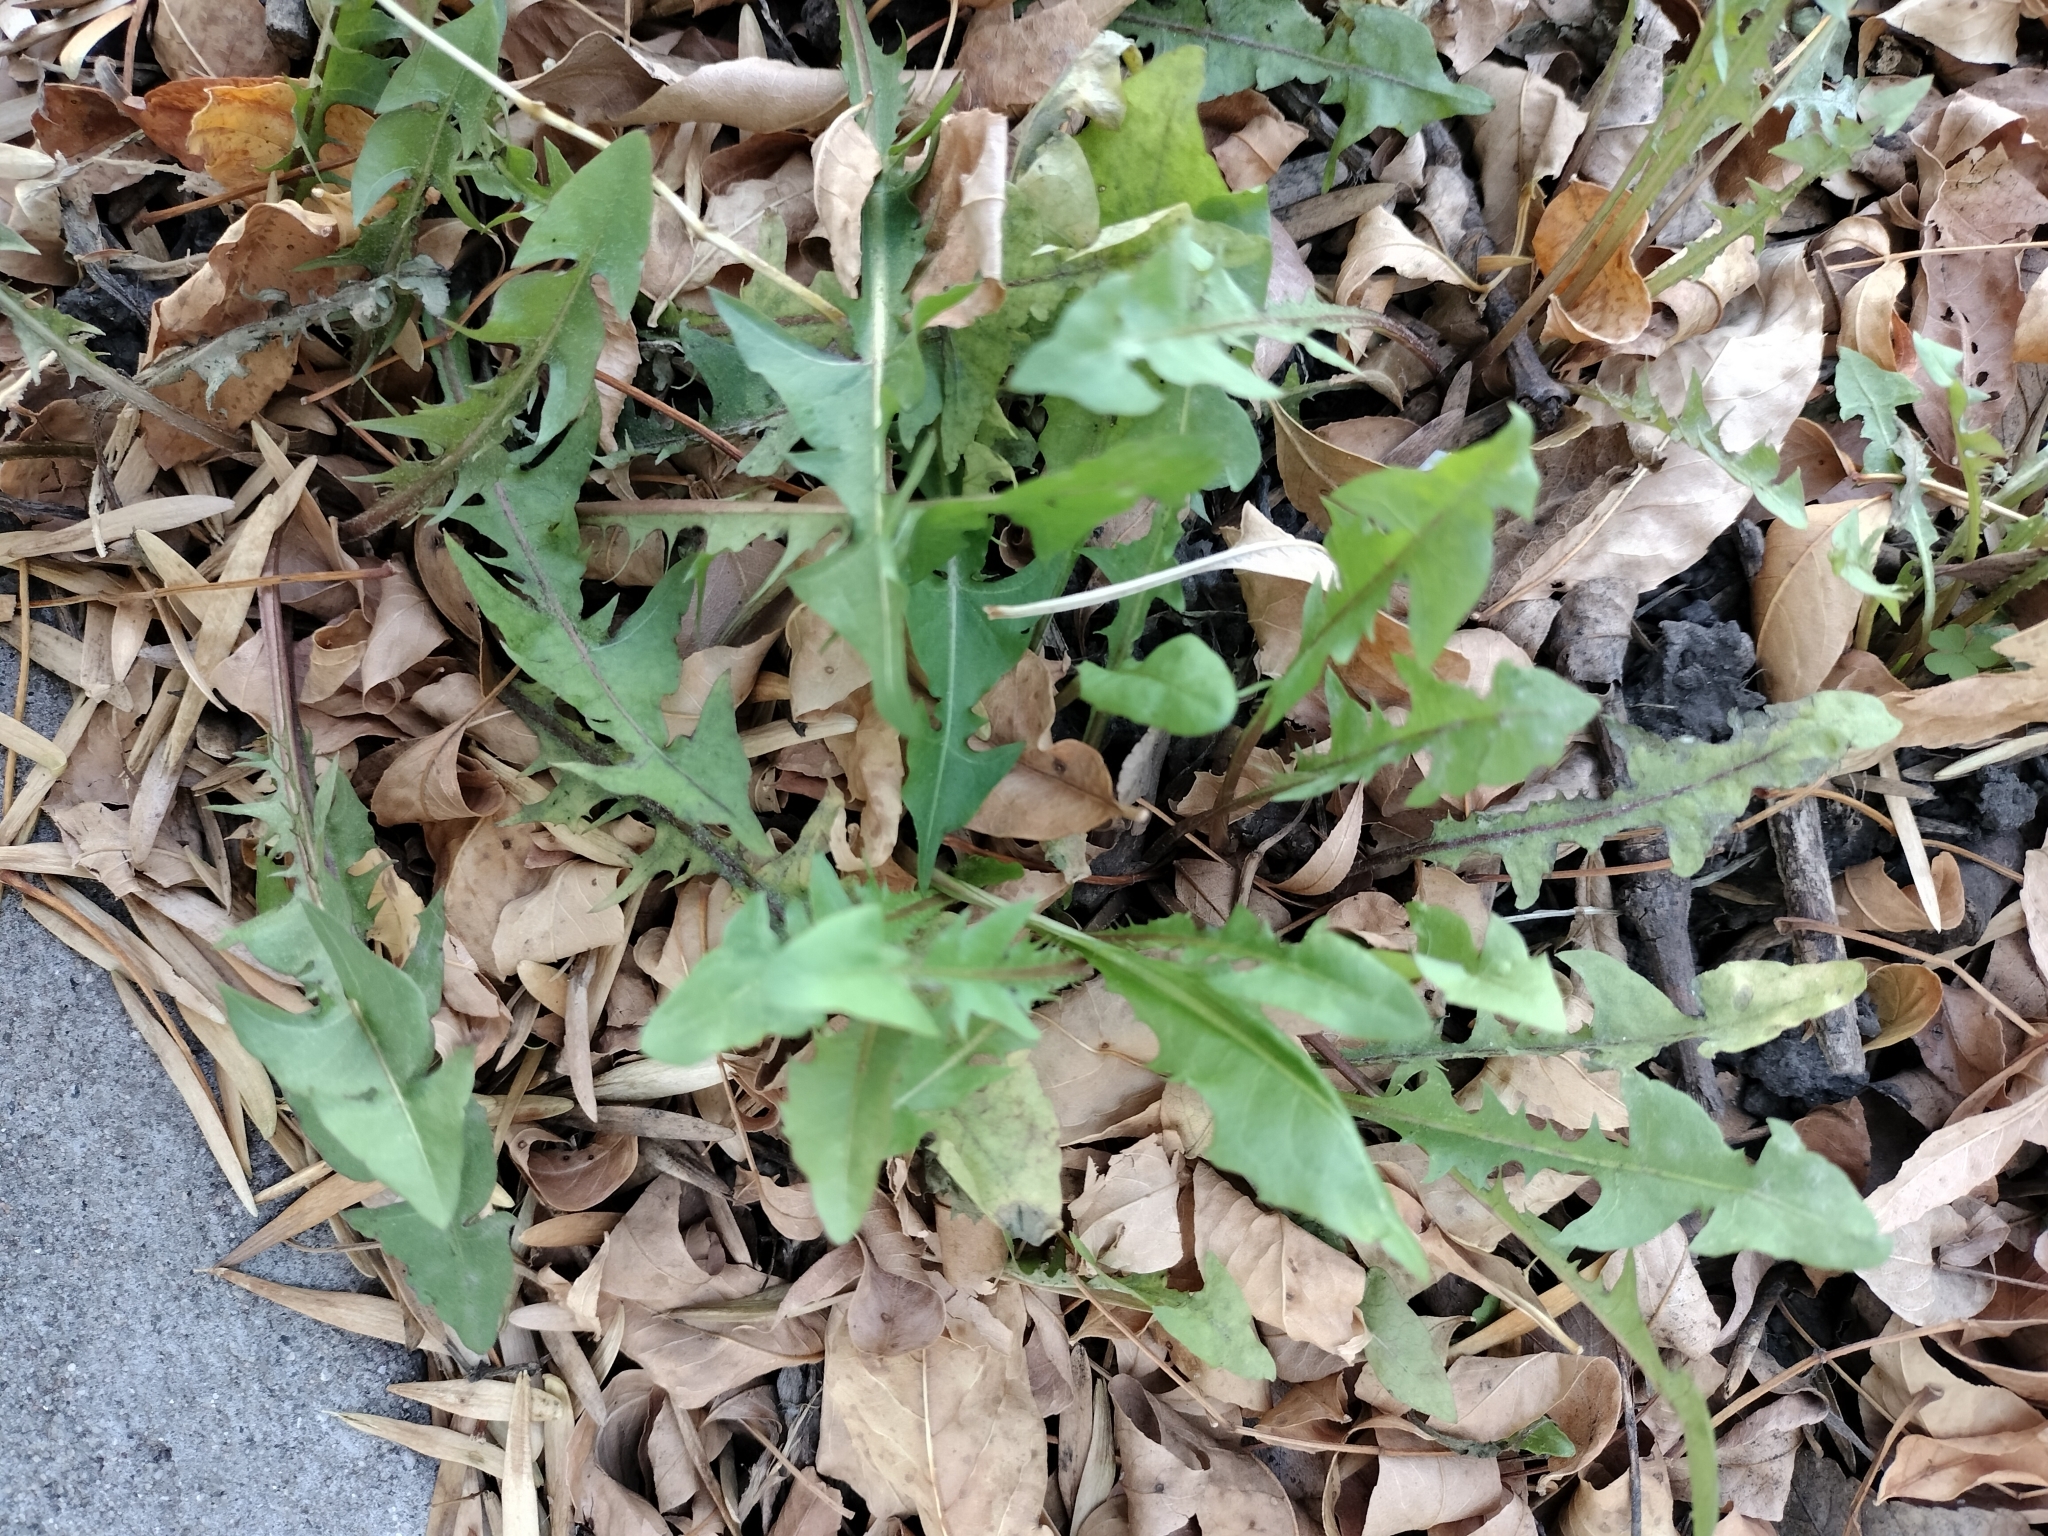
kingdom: Plantae
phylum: Tracheophyta
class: Magnoliopsida
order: Asterales
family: Asteraceae
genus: Taraxacum
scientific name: Taraxacum
